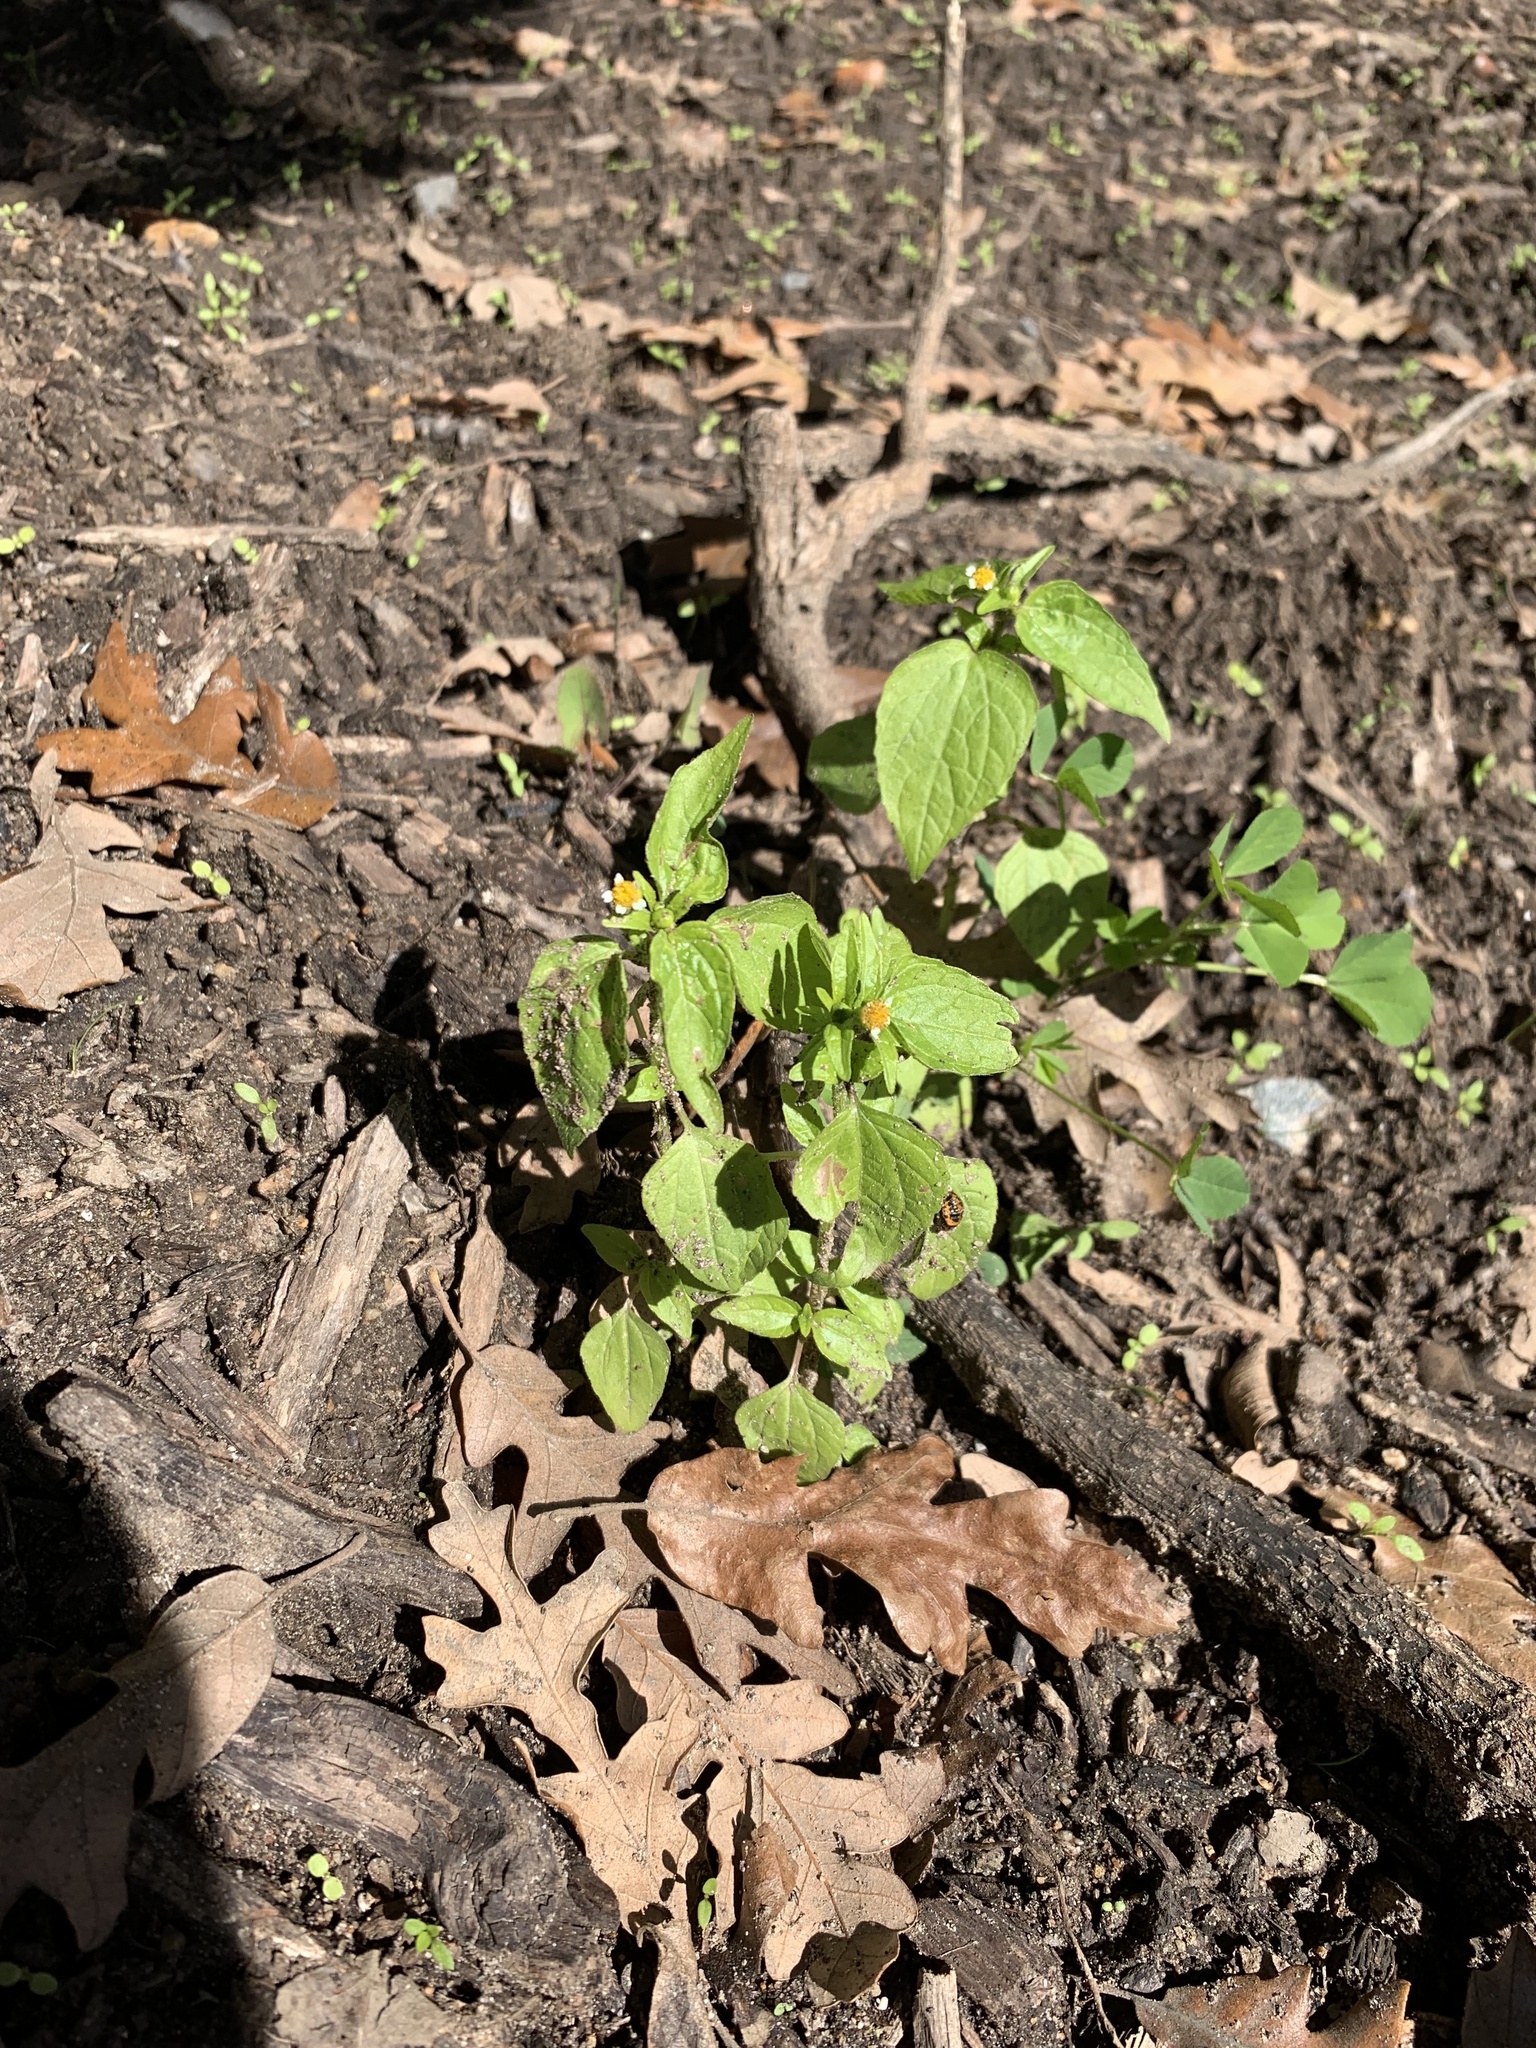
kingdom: Plantae
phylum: Tracheophyta
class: Magnoliopsida
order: Asterales
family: Asteraceae
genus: Galinsoga
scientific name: Galinsoga parviflora
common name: Gallant soldier
